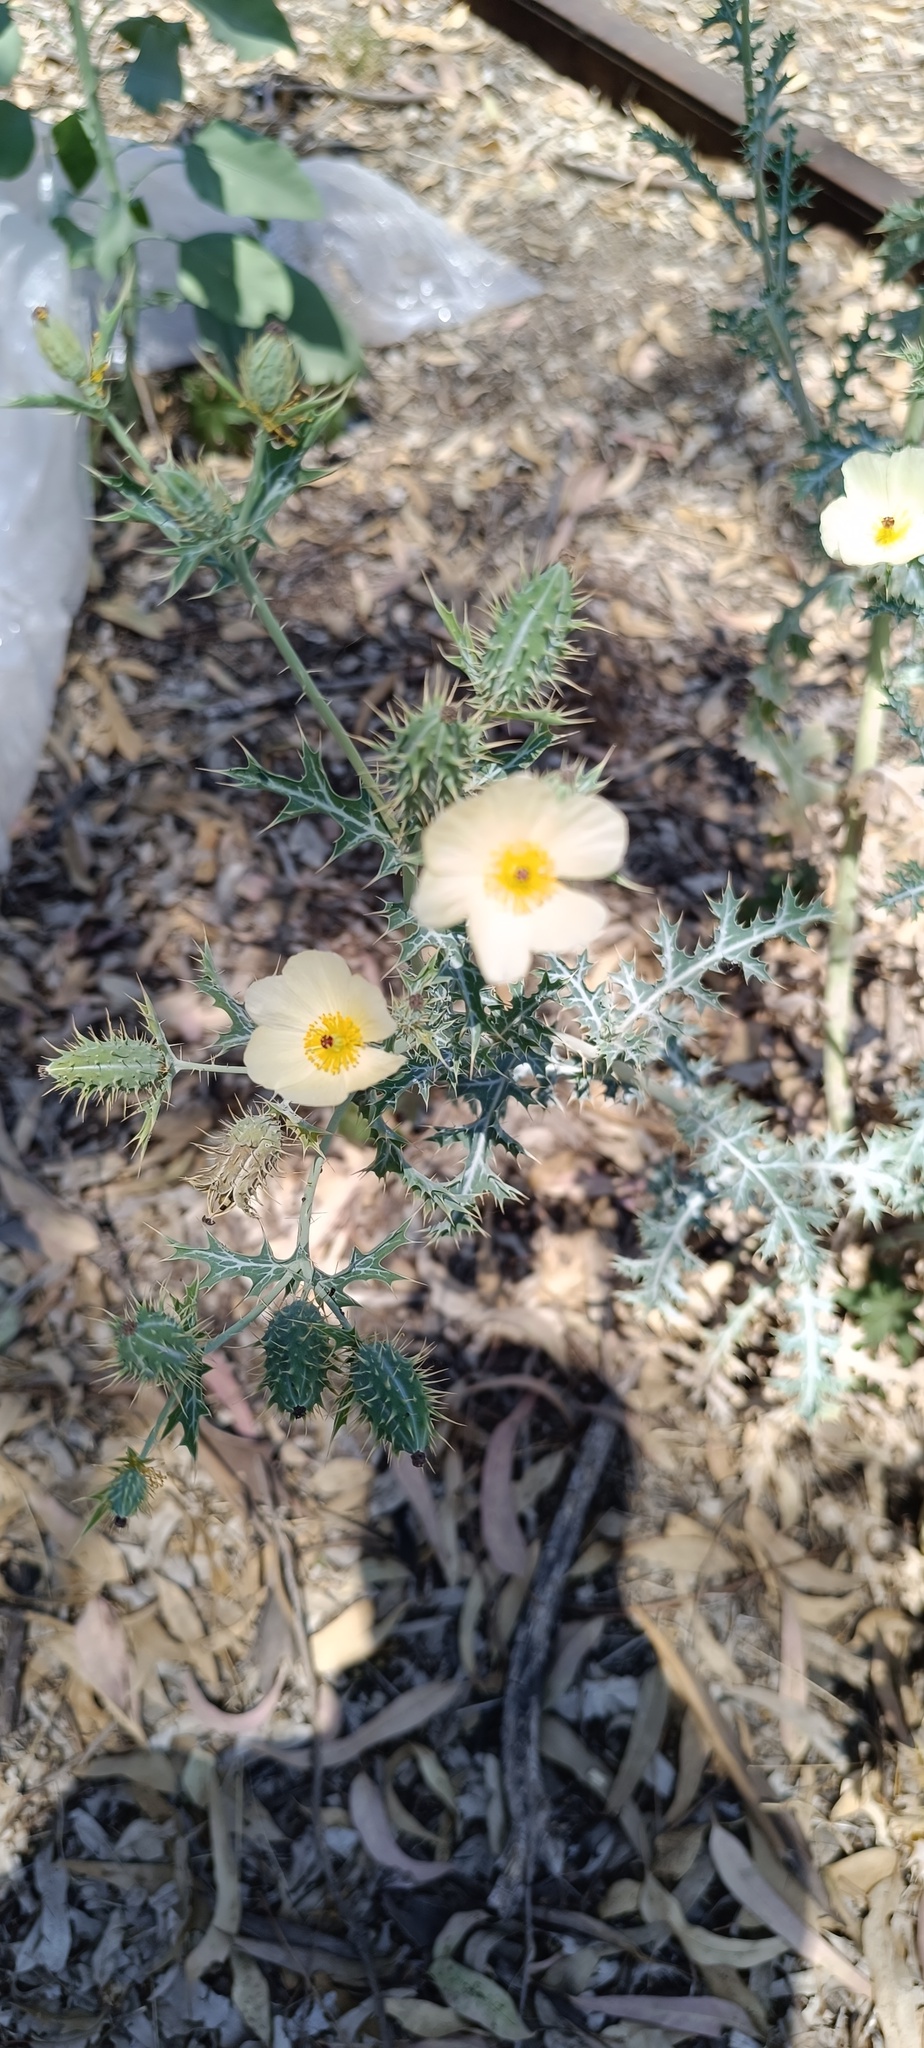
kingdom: Plantae
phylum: Tracheophyta
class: Magnoliopsida
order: Ranunculales
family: Papaveraceae
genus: Argemone
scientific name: Argemone ochroleuca
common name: White-flower mexican-poppy
